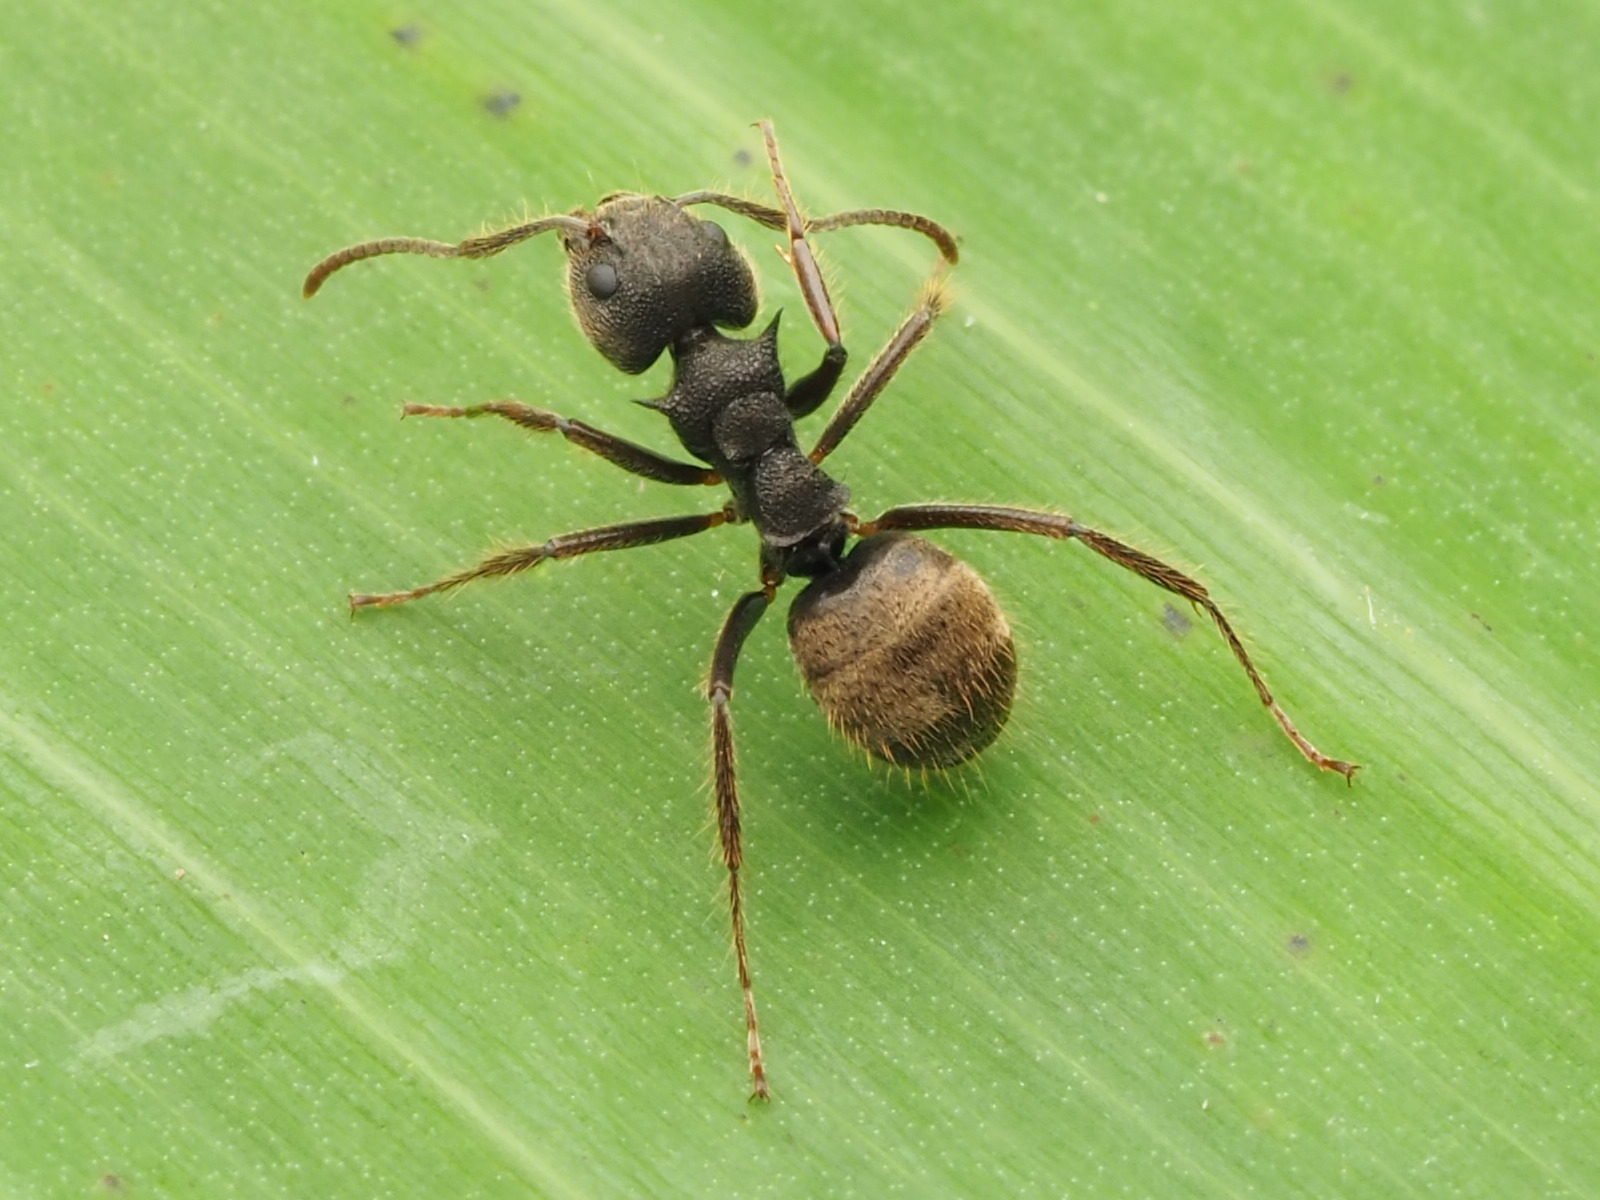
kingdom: Animalia
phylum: Arthropoda
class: Insecta
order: Hymenoptera
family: Formicidae
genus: Dolichoderus
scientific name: Dolichoderus bispinosus
